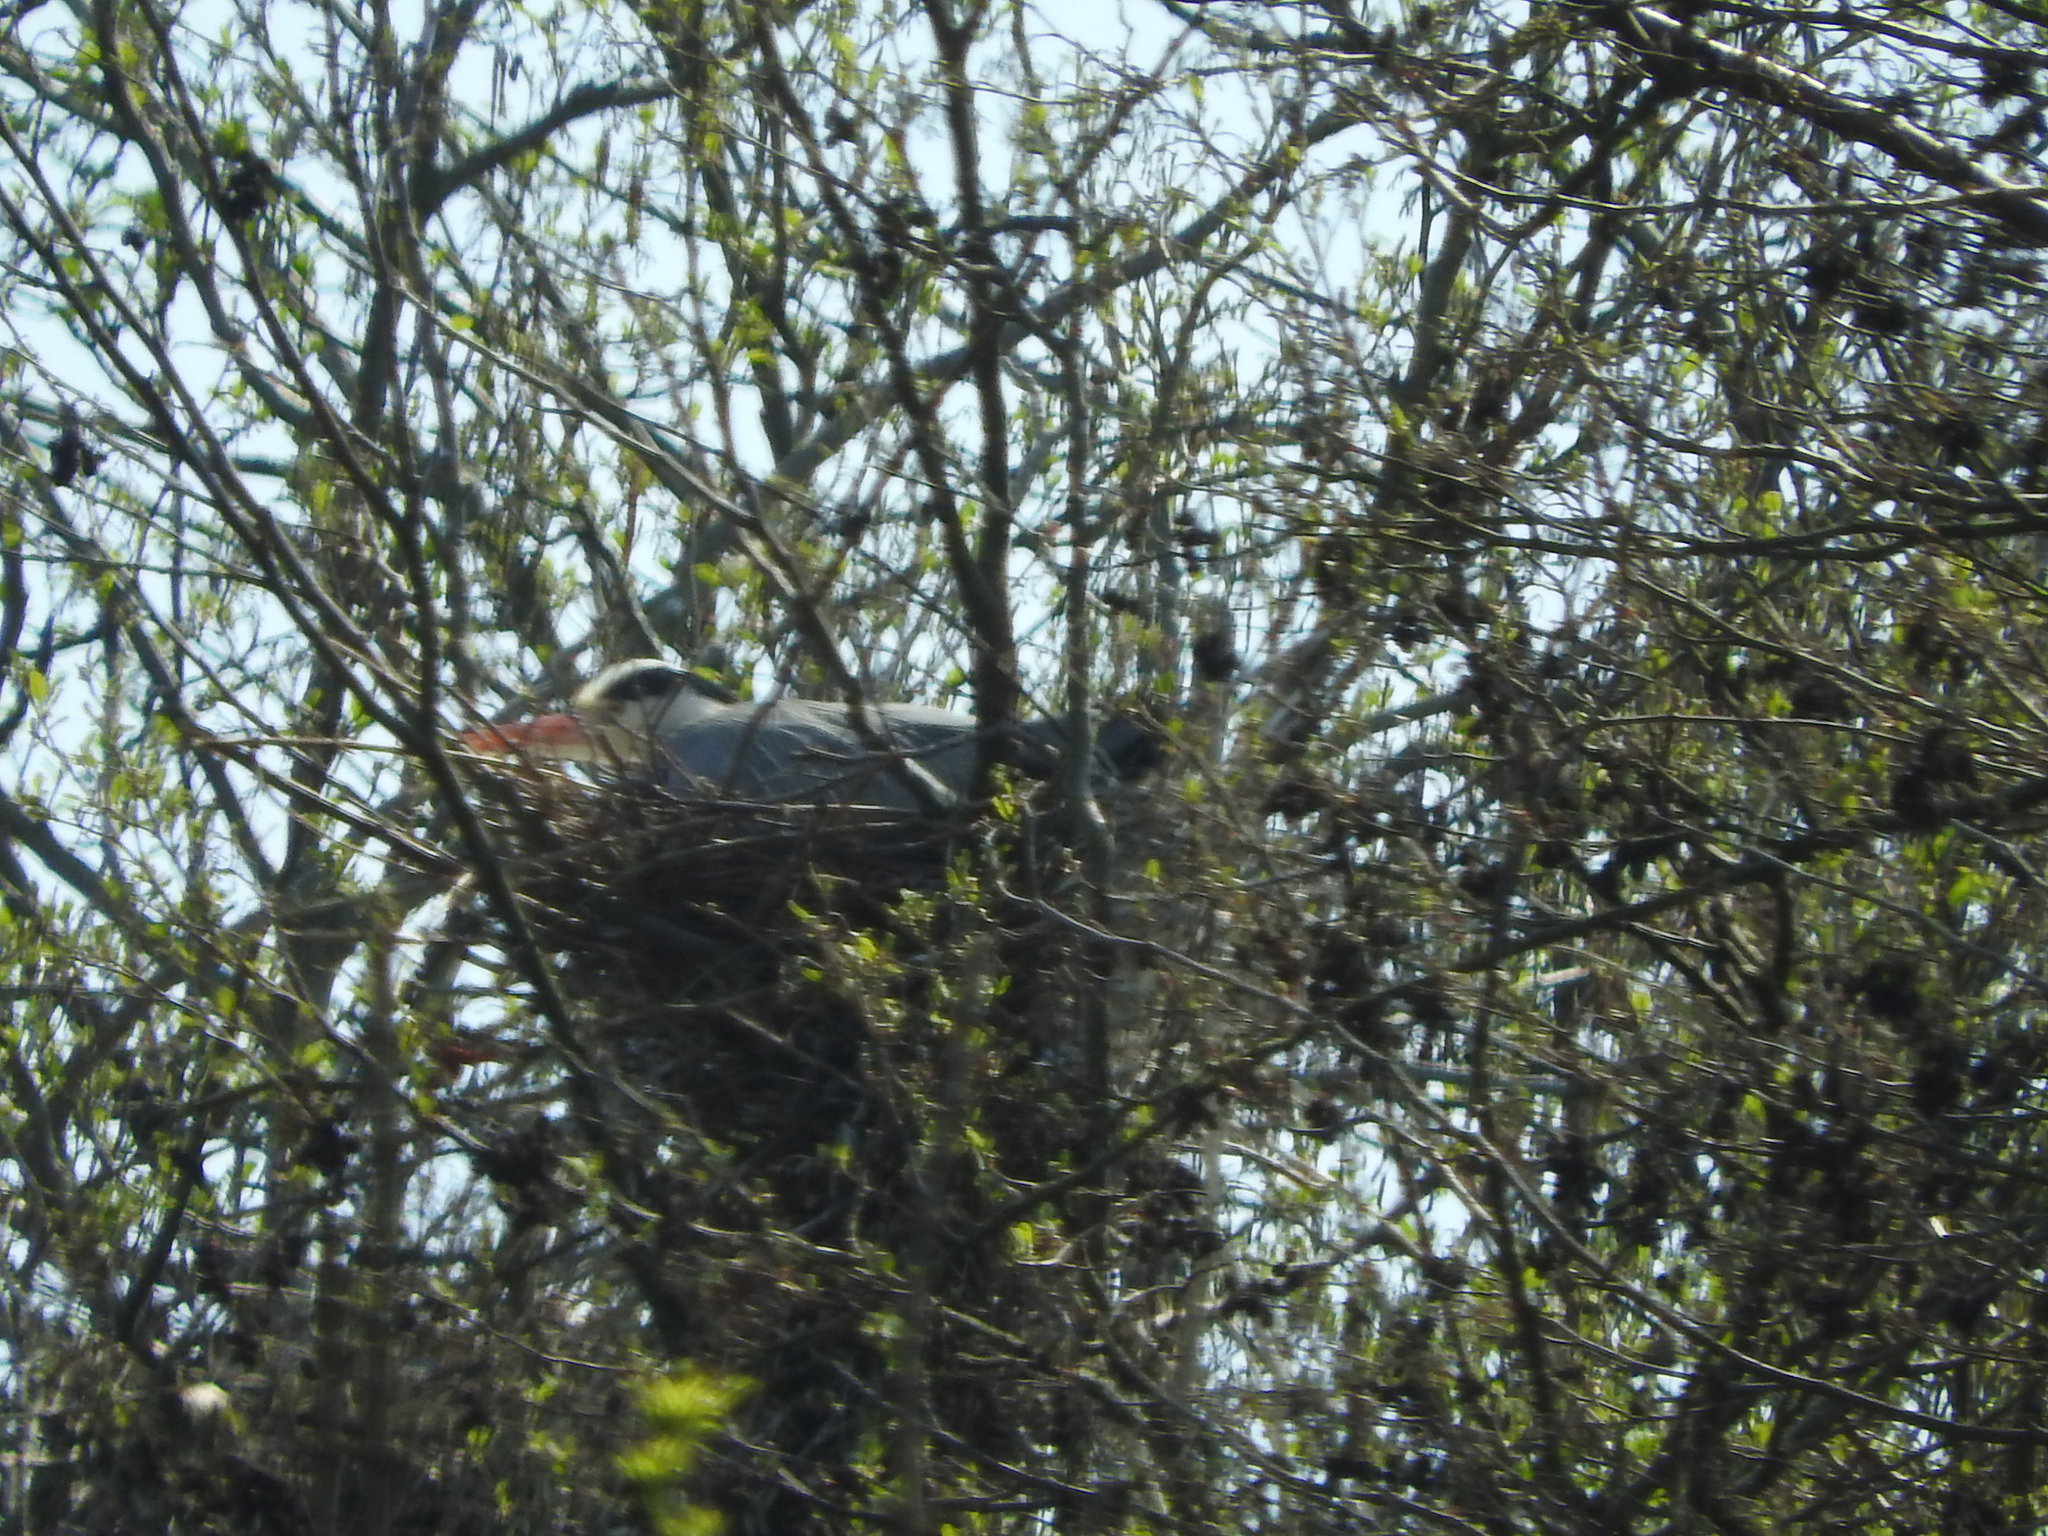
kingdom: Animalia
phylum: Chordata
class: Aves
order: Pelecaniformes
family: Ardeidae
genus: Ardea
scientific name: Ardea cinerea
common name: Grey heron
